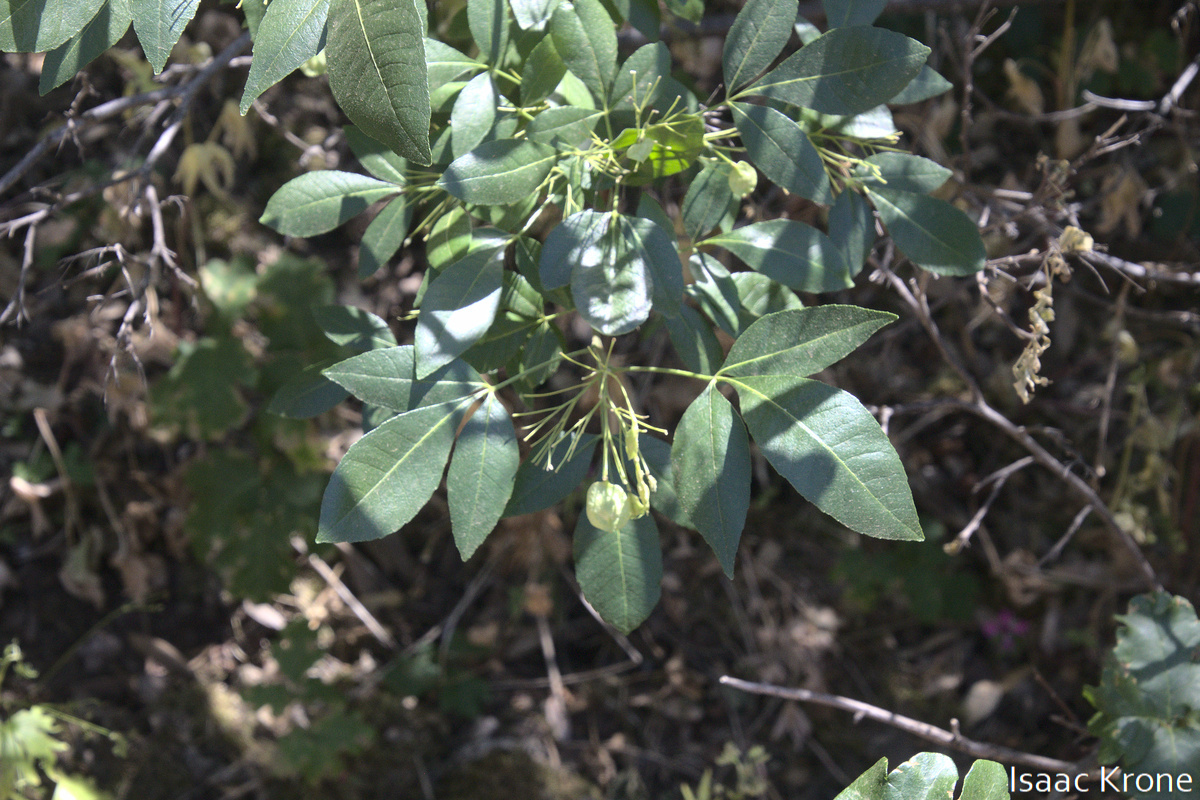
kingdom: Plantae
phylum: Tracheophyta
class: Magnoliopsida
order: Sapindales
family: Rutaceae
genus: Ptelea
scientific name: Ptelea crenulata
